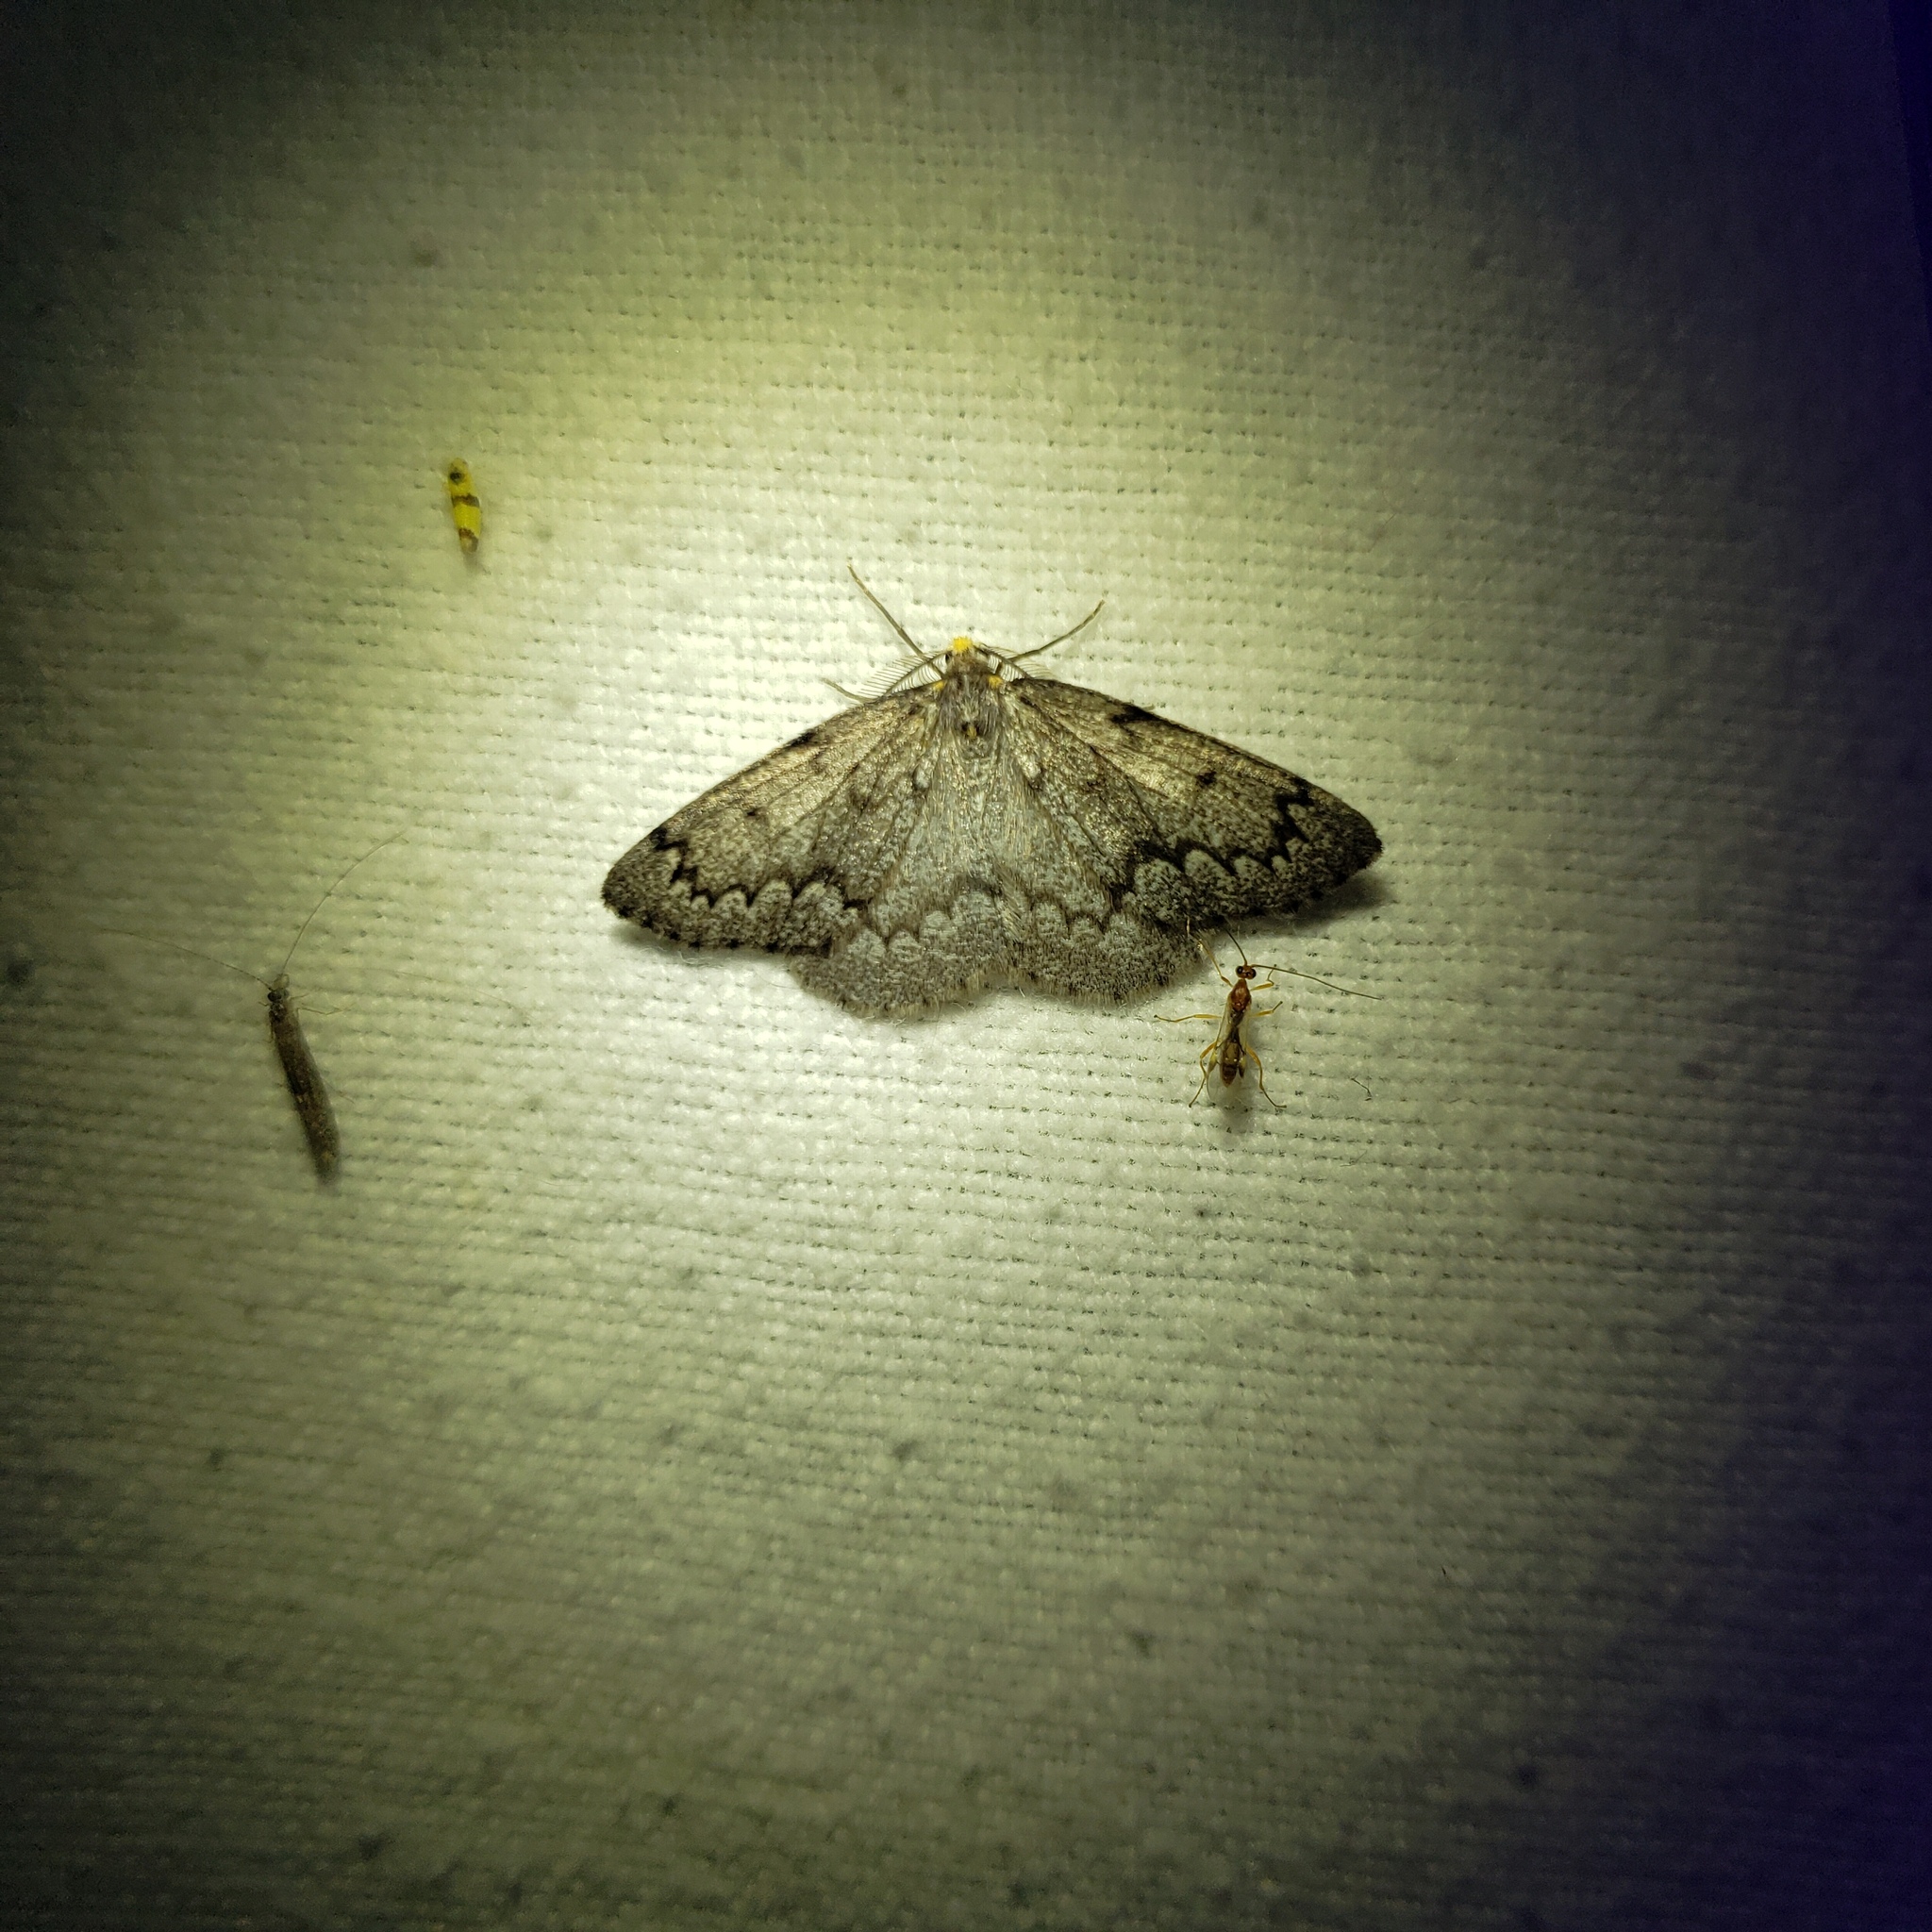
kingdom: Animalia
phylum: Arthropoda
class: Insecta
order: Lepidoptera
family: Geometridae
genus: Nepytia
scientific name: Nepytia canosaria
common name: False hemlock looper
